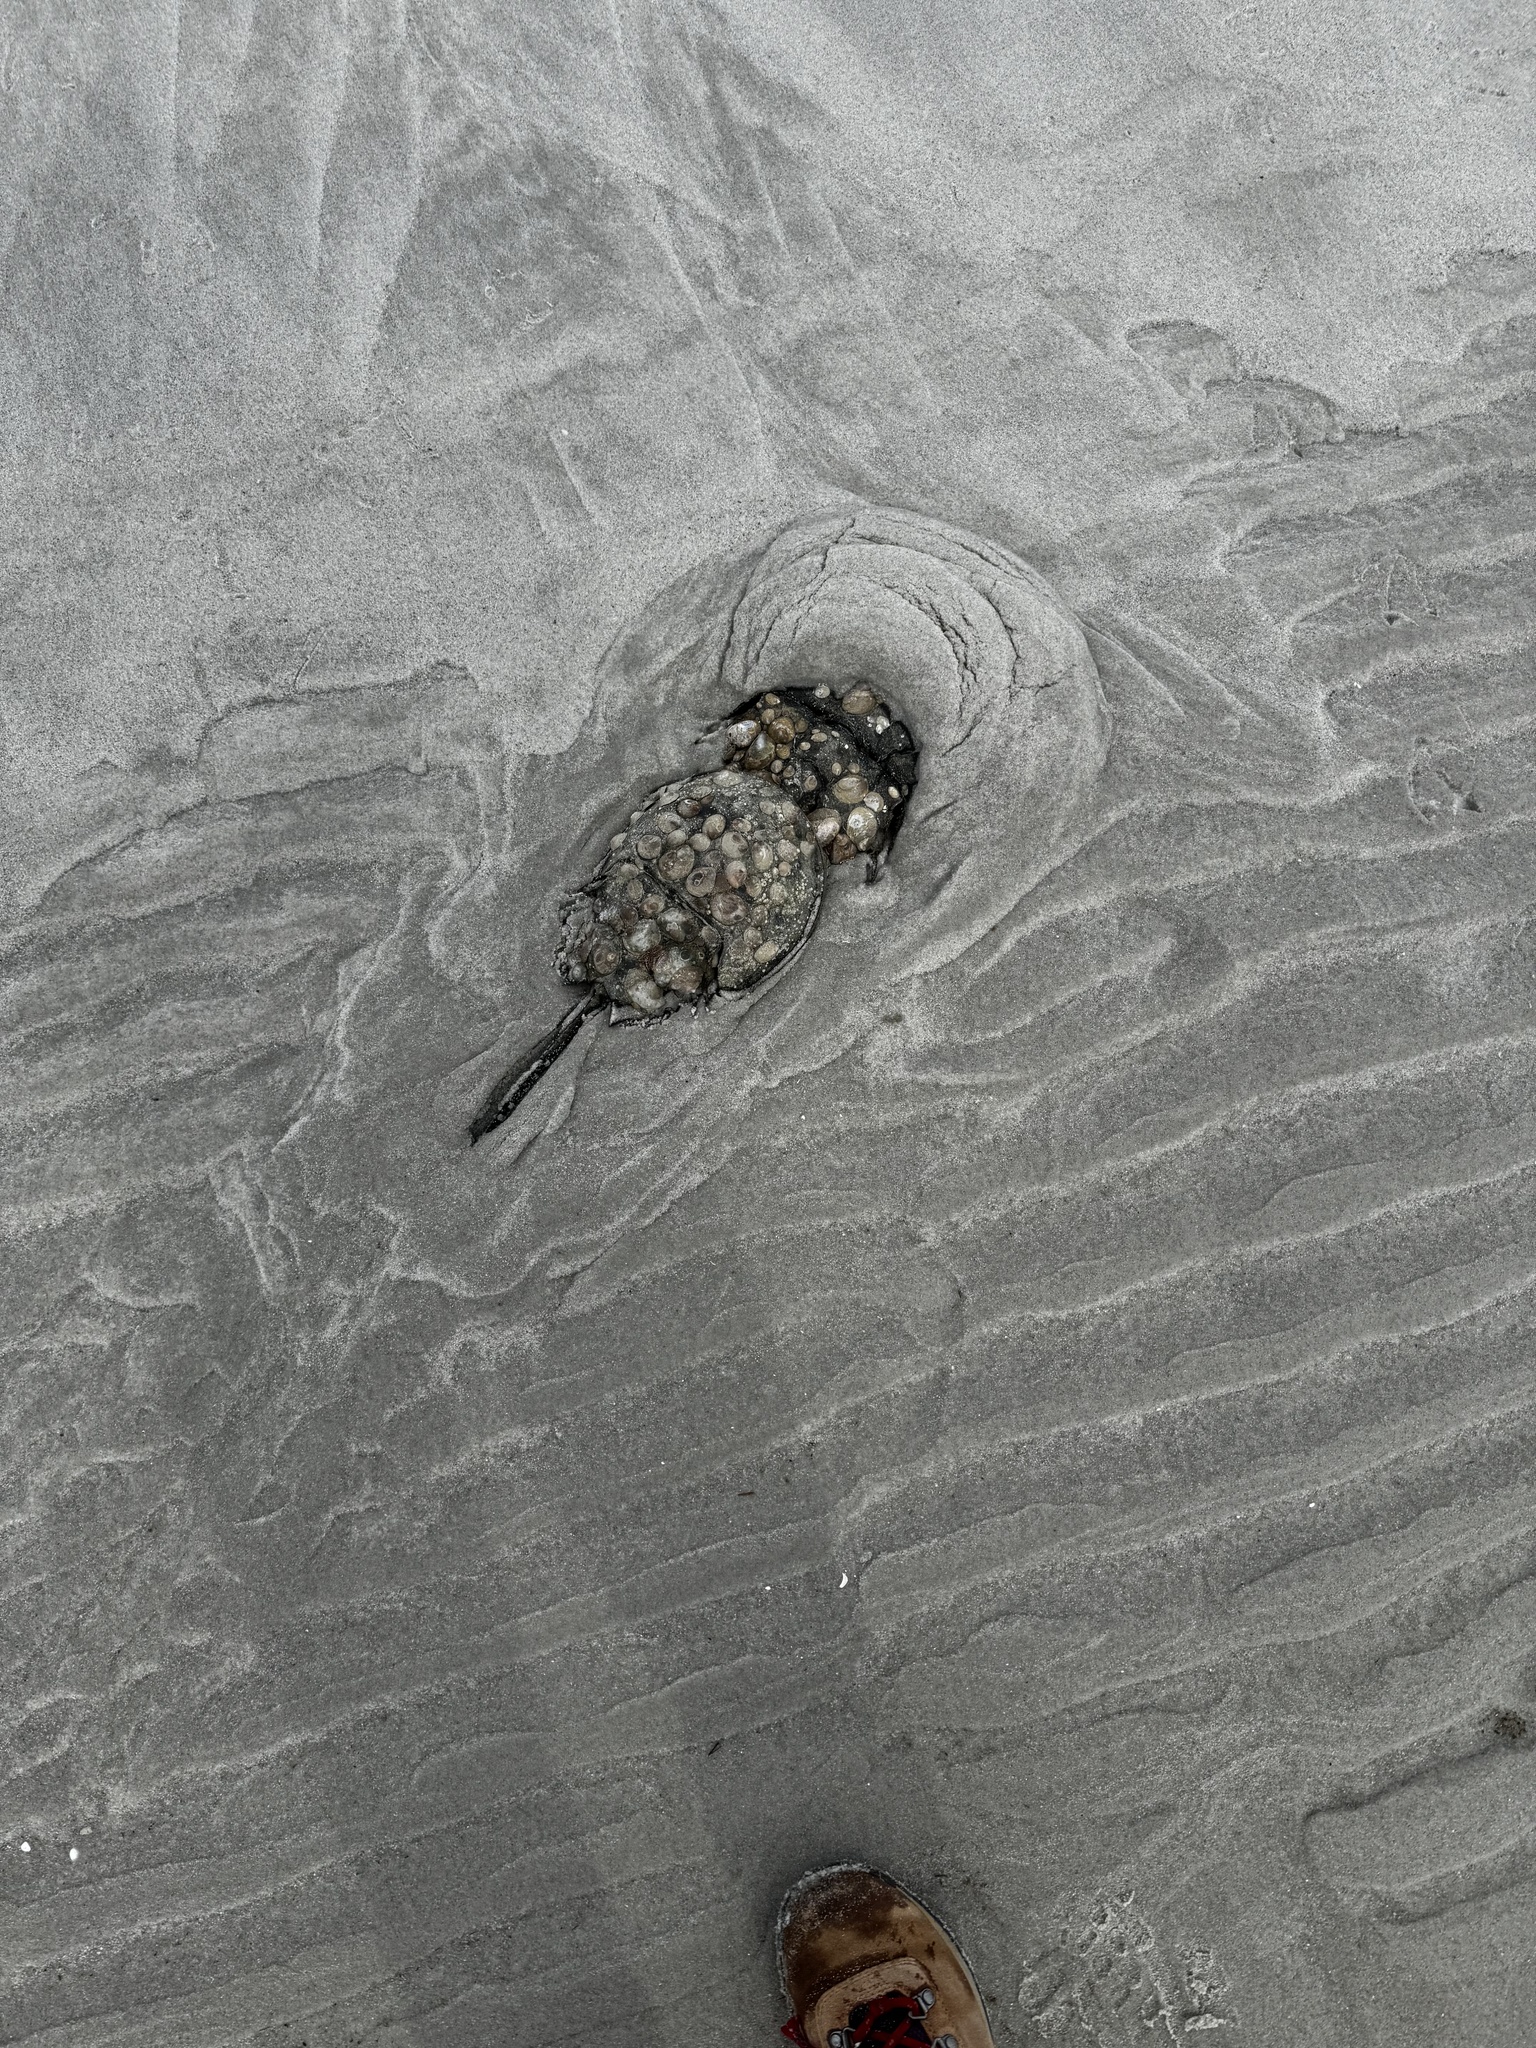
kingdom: Animalia
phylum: Arthropoda
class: Merostomata
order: Xiphosurida
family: Limulidae
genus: Limulus
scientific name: Limulus polyphemus
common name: Horseshoe crab
